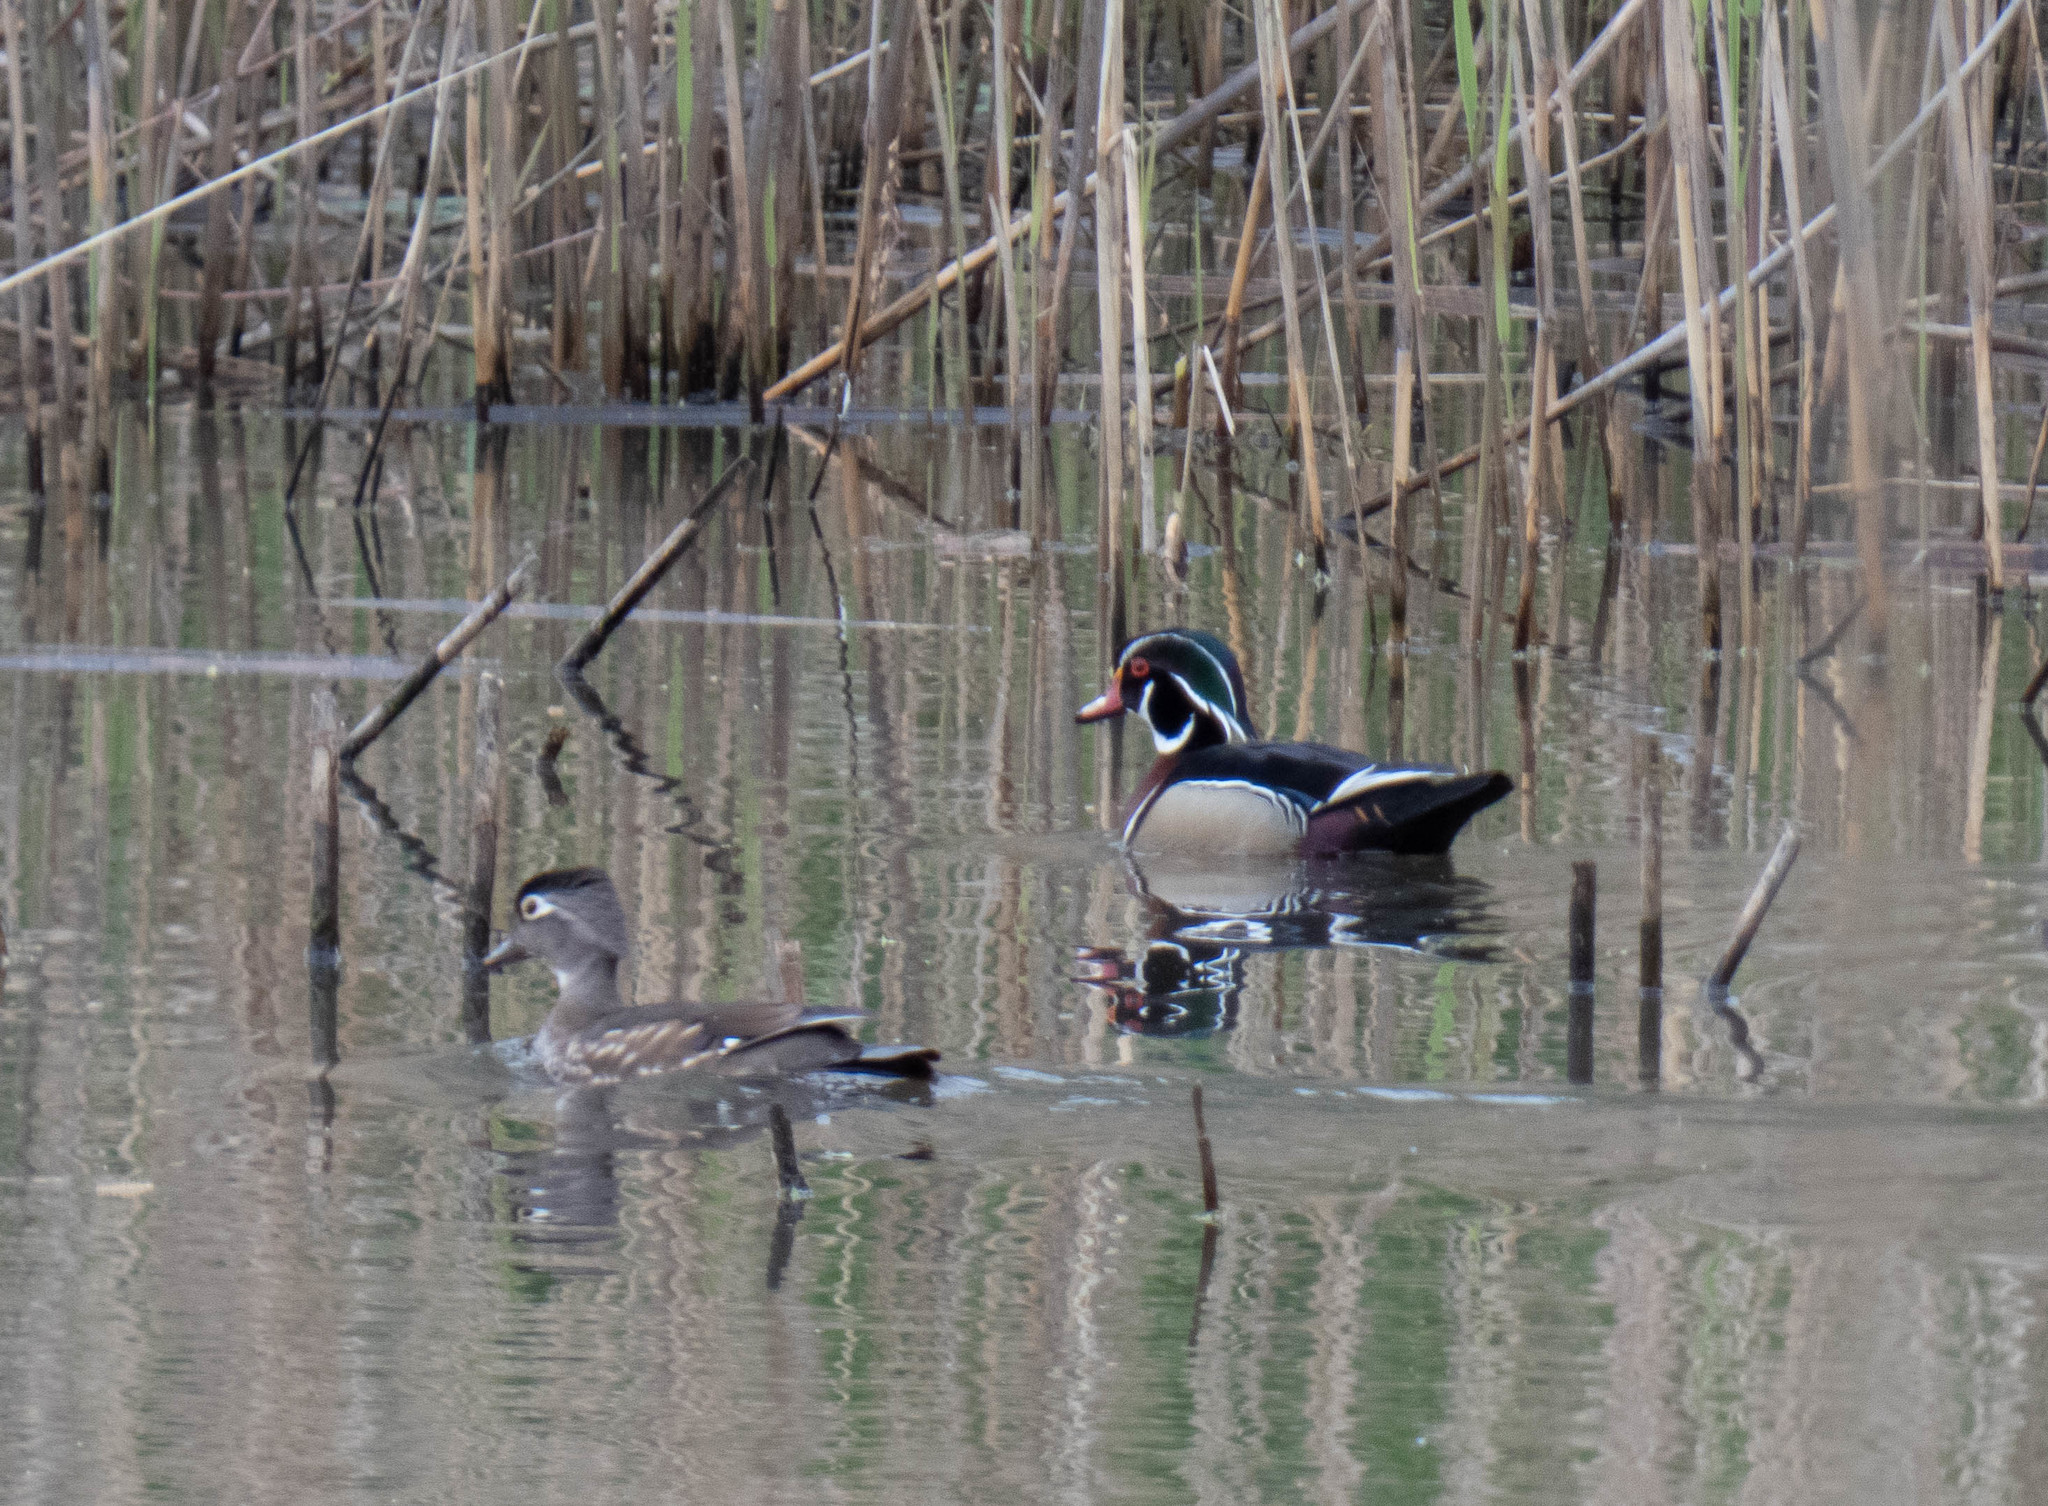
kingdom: Animalia
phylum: Chordata
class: Aves
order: Anseriformes
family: Anatidae
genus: Aix
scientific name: Aix sponsa
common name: Wood duck
